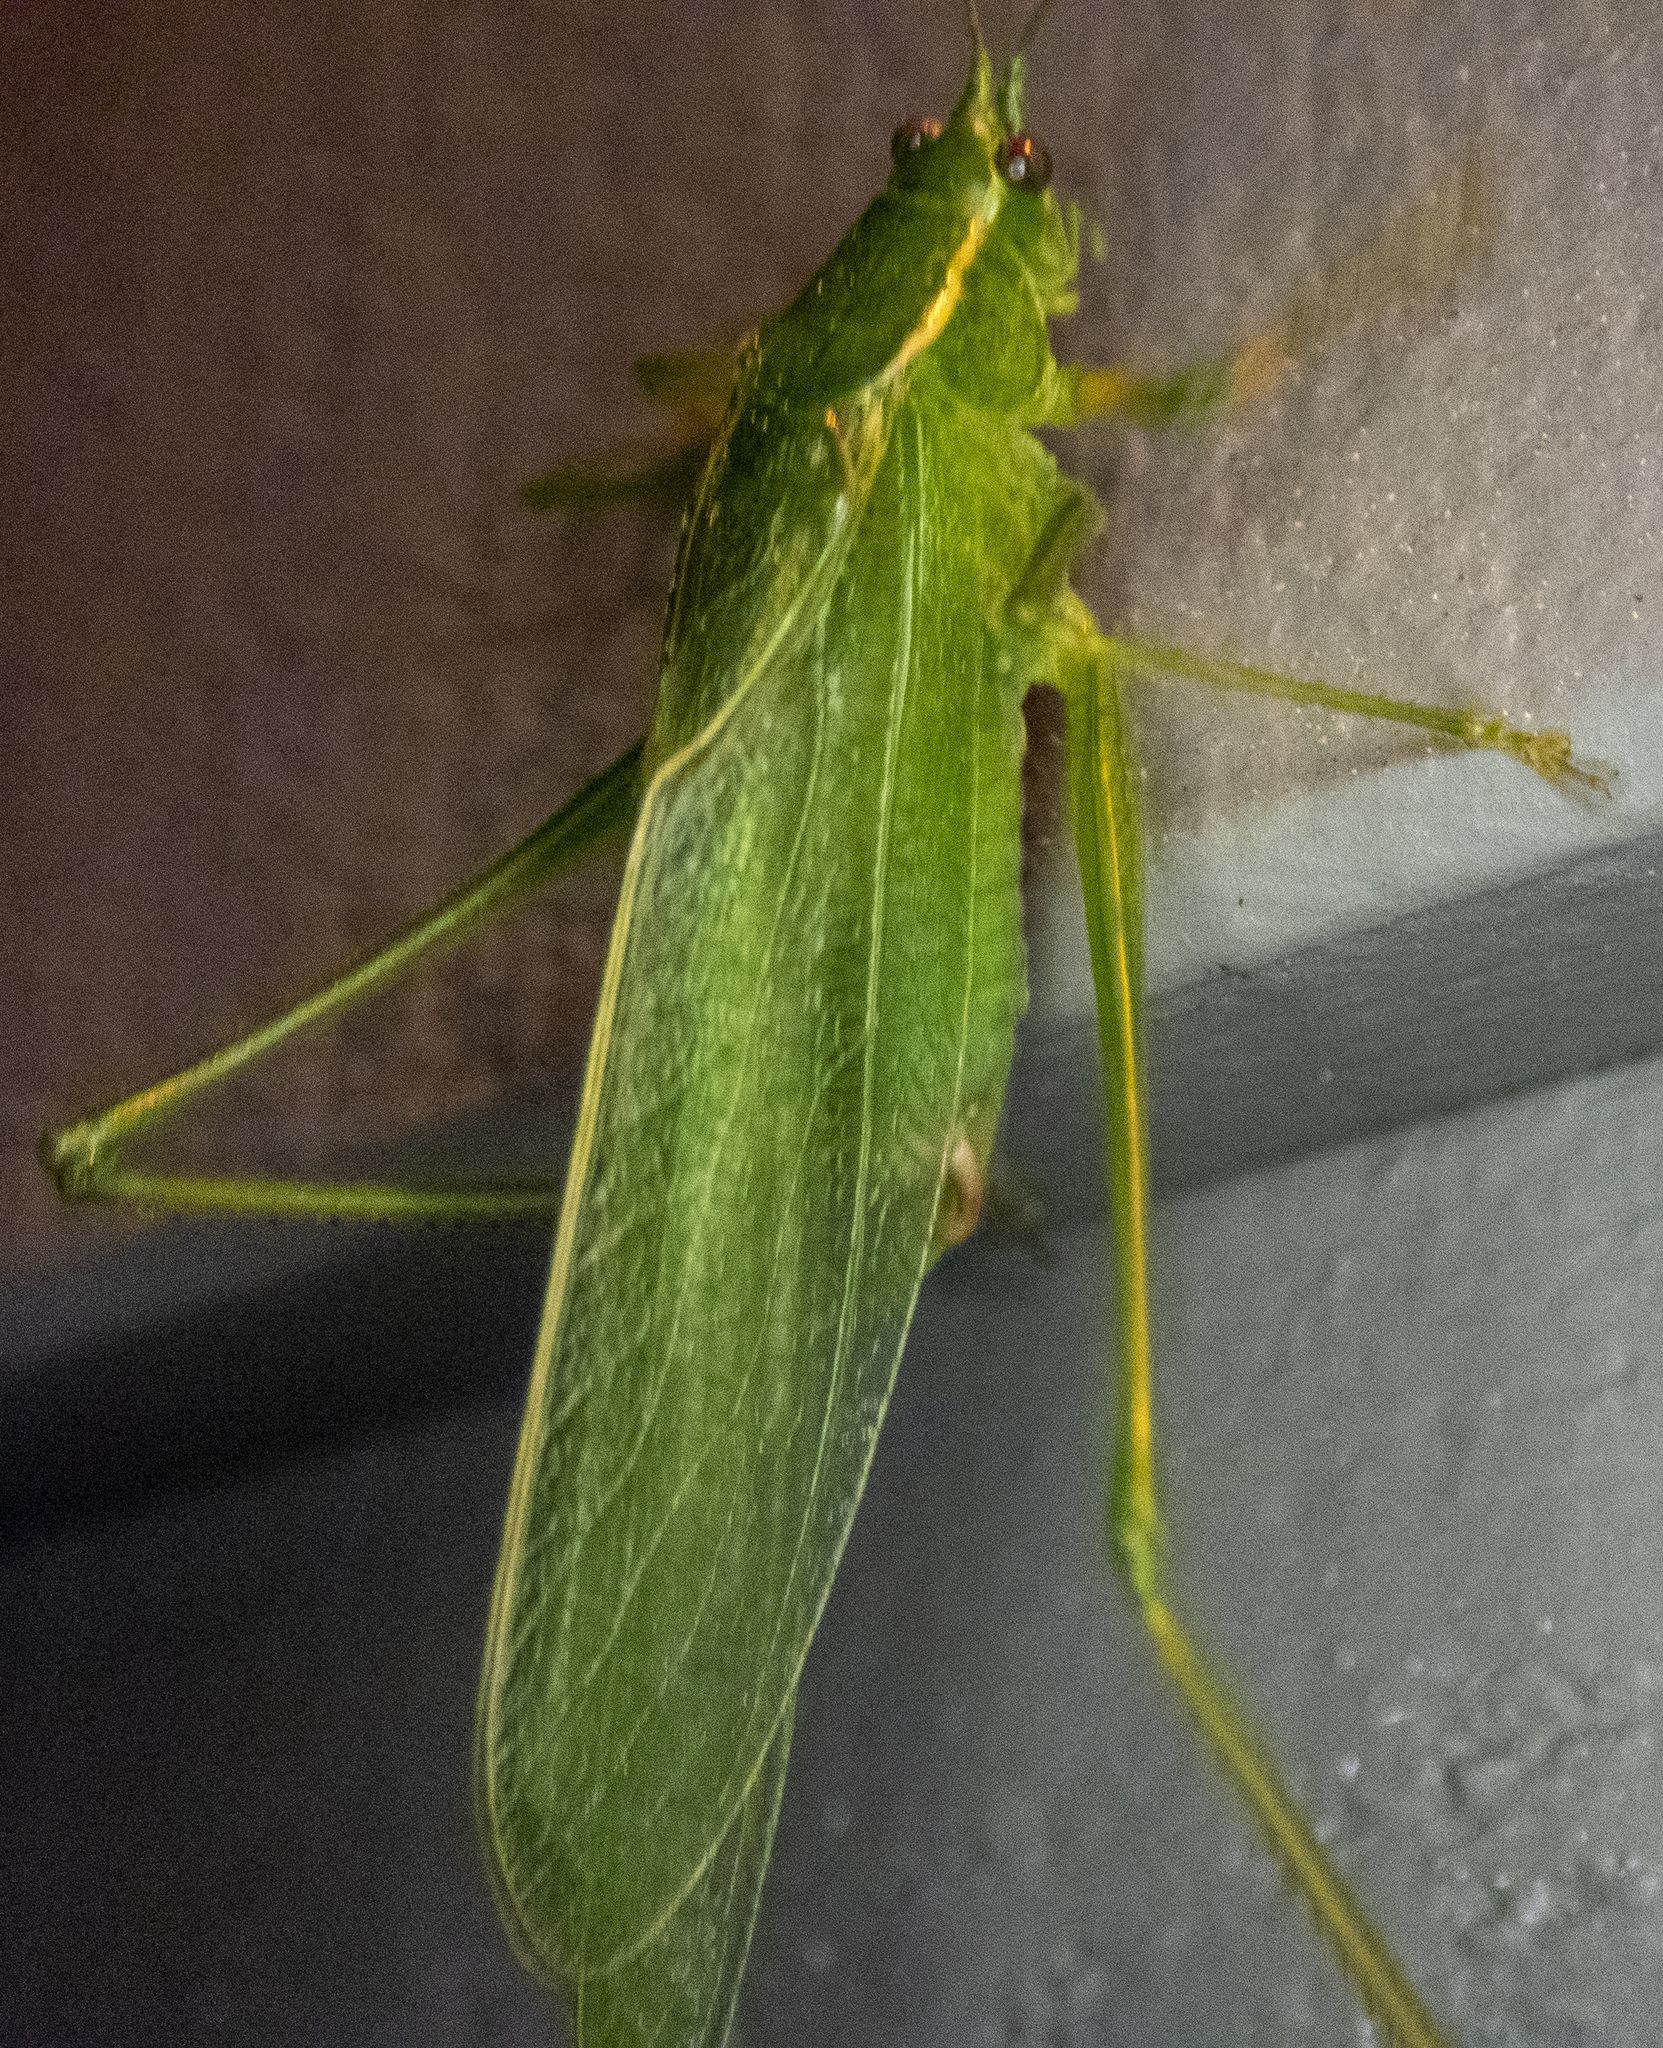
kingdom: Animalia
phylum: Arthropoda
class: Insecta
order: Orthoptera
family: Tettigoniidae
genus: Scudderia
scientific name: Scudderia septentrionalis
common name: Northern bush-katydid
